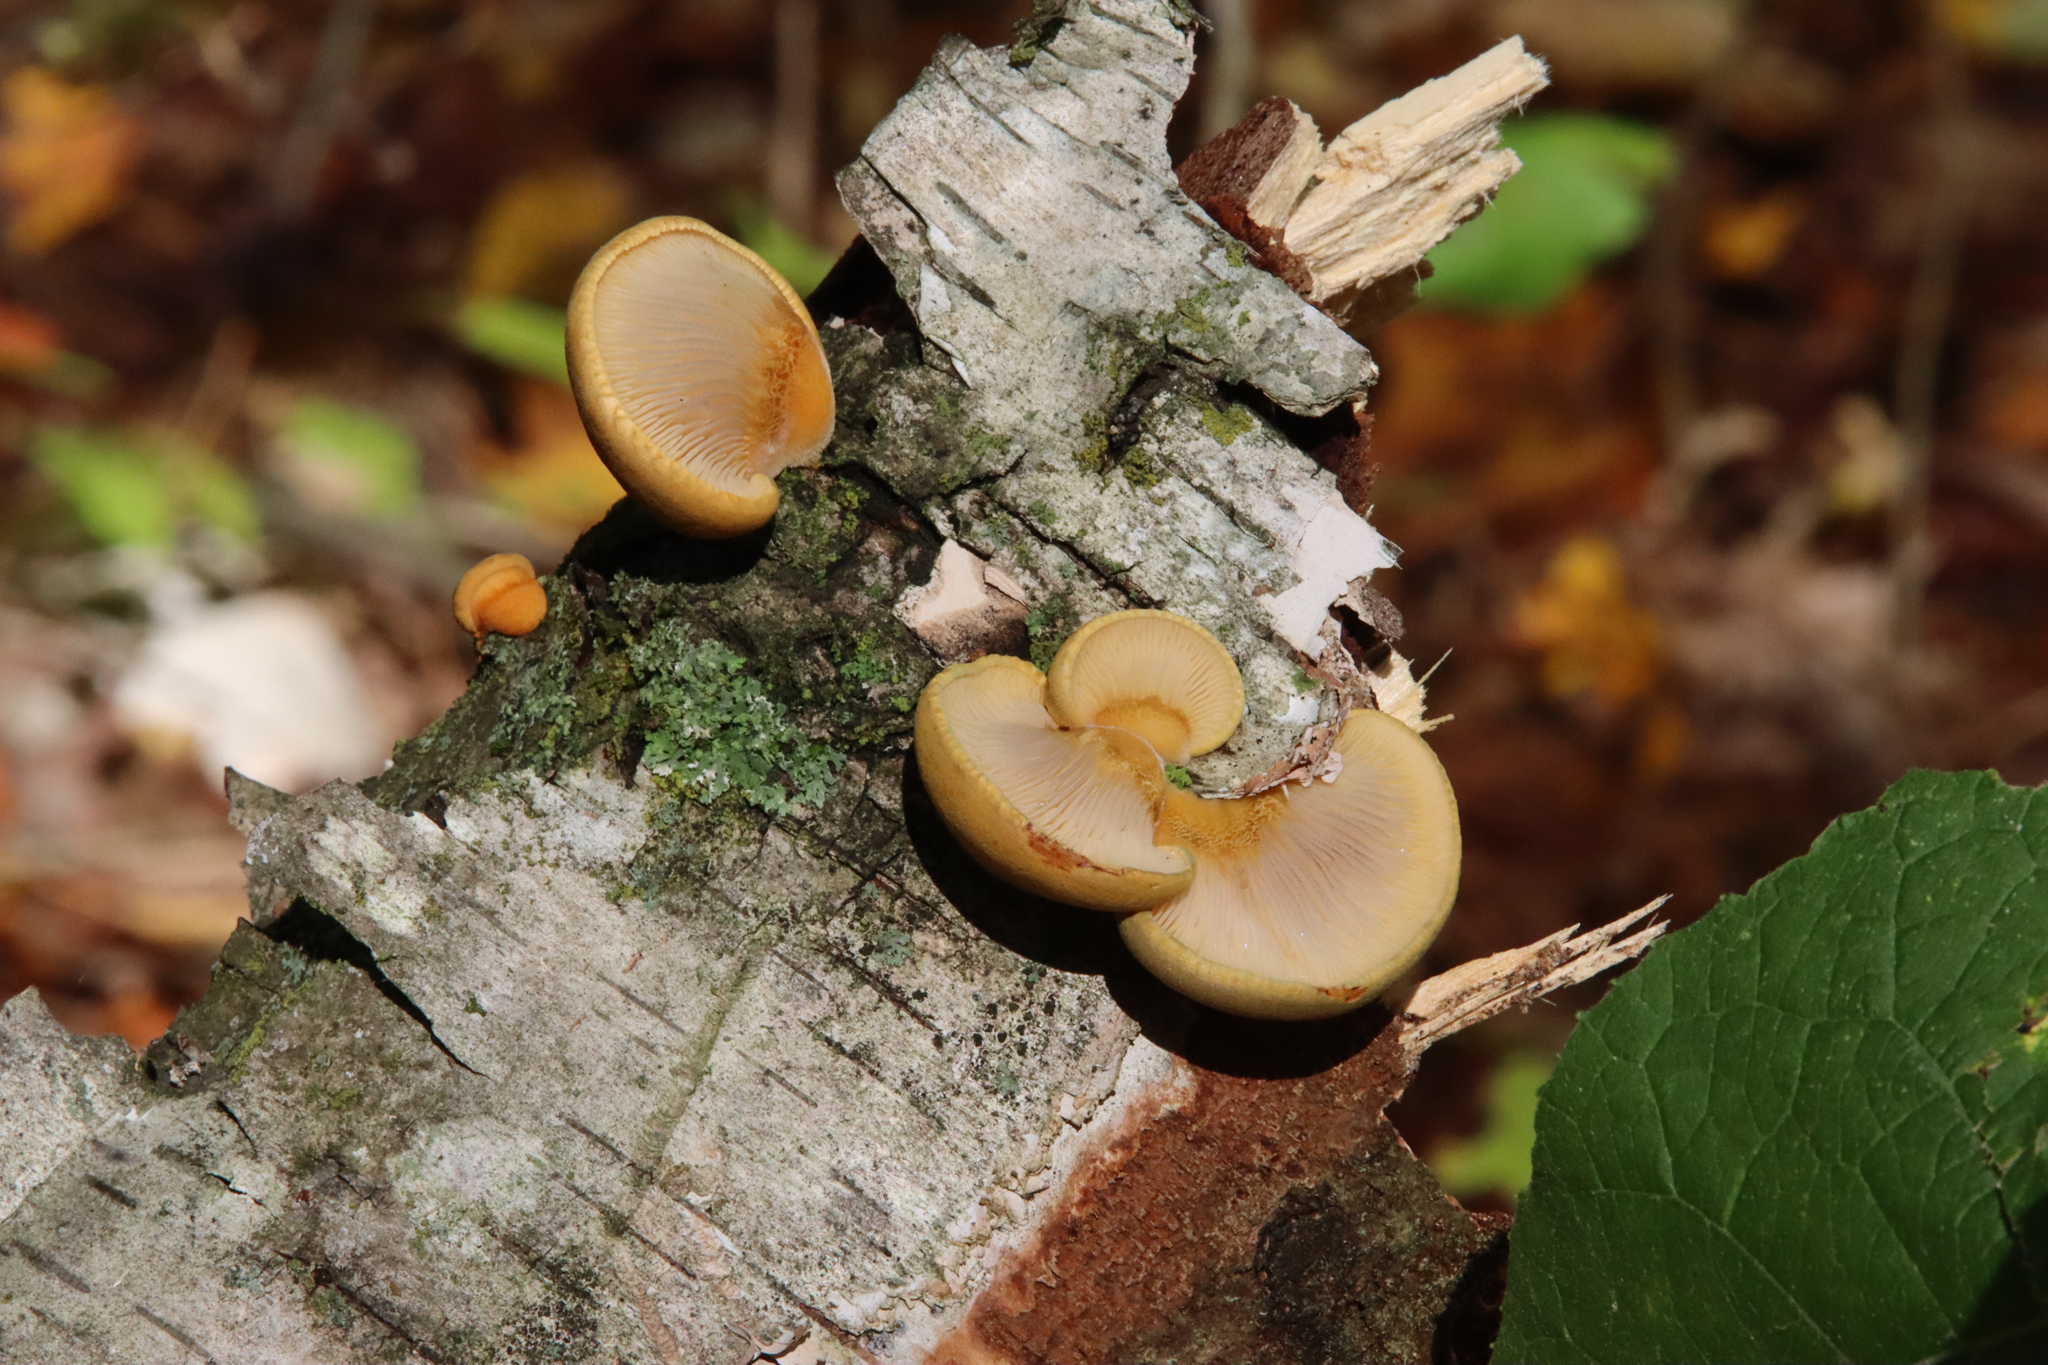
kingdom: Fungi
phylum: Basidiomycota
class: Agaricomycetes
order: Agaricales
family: Sarcomyxaceae
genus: Sarcomyxa
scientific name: Sarcomyxa serotina
